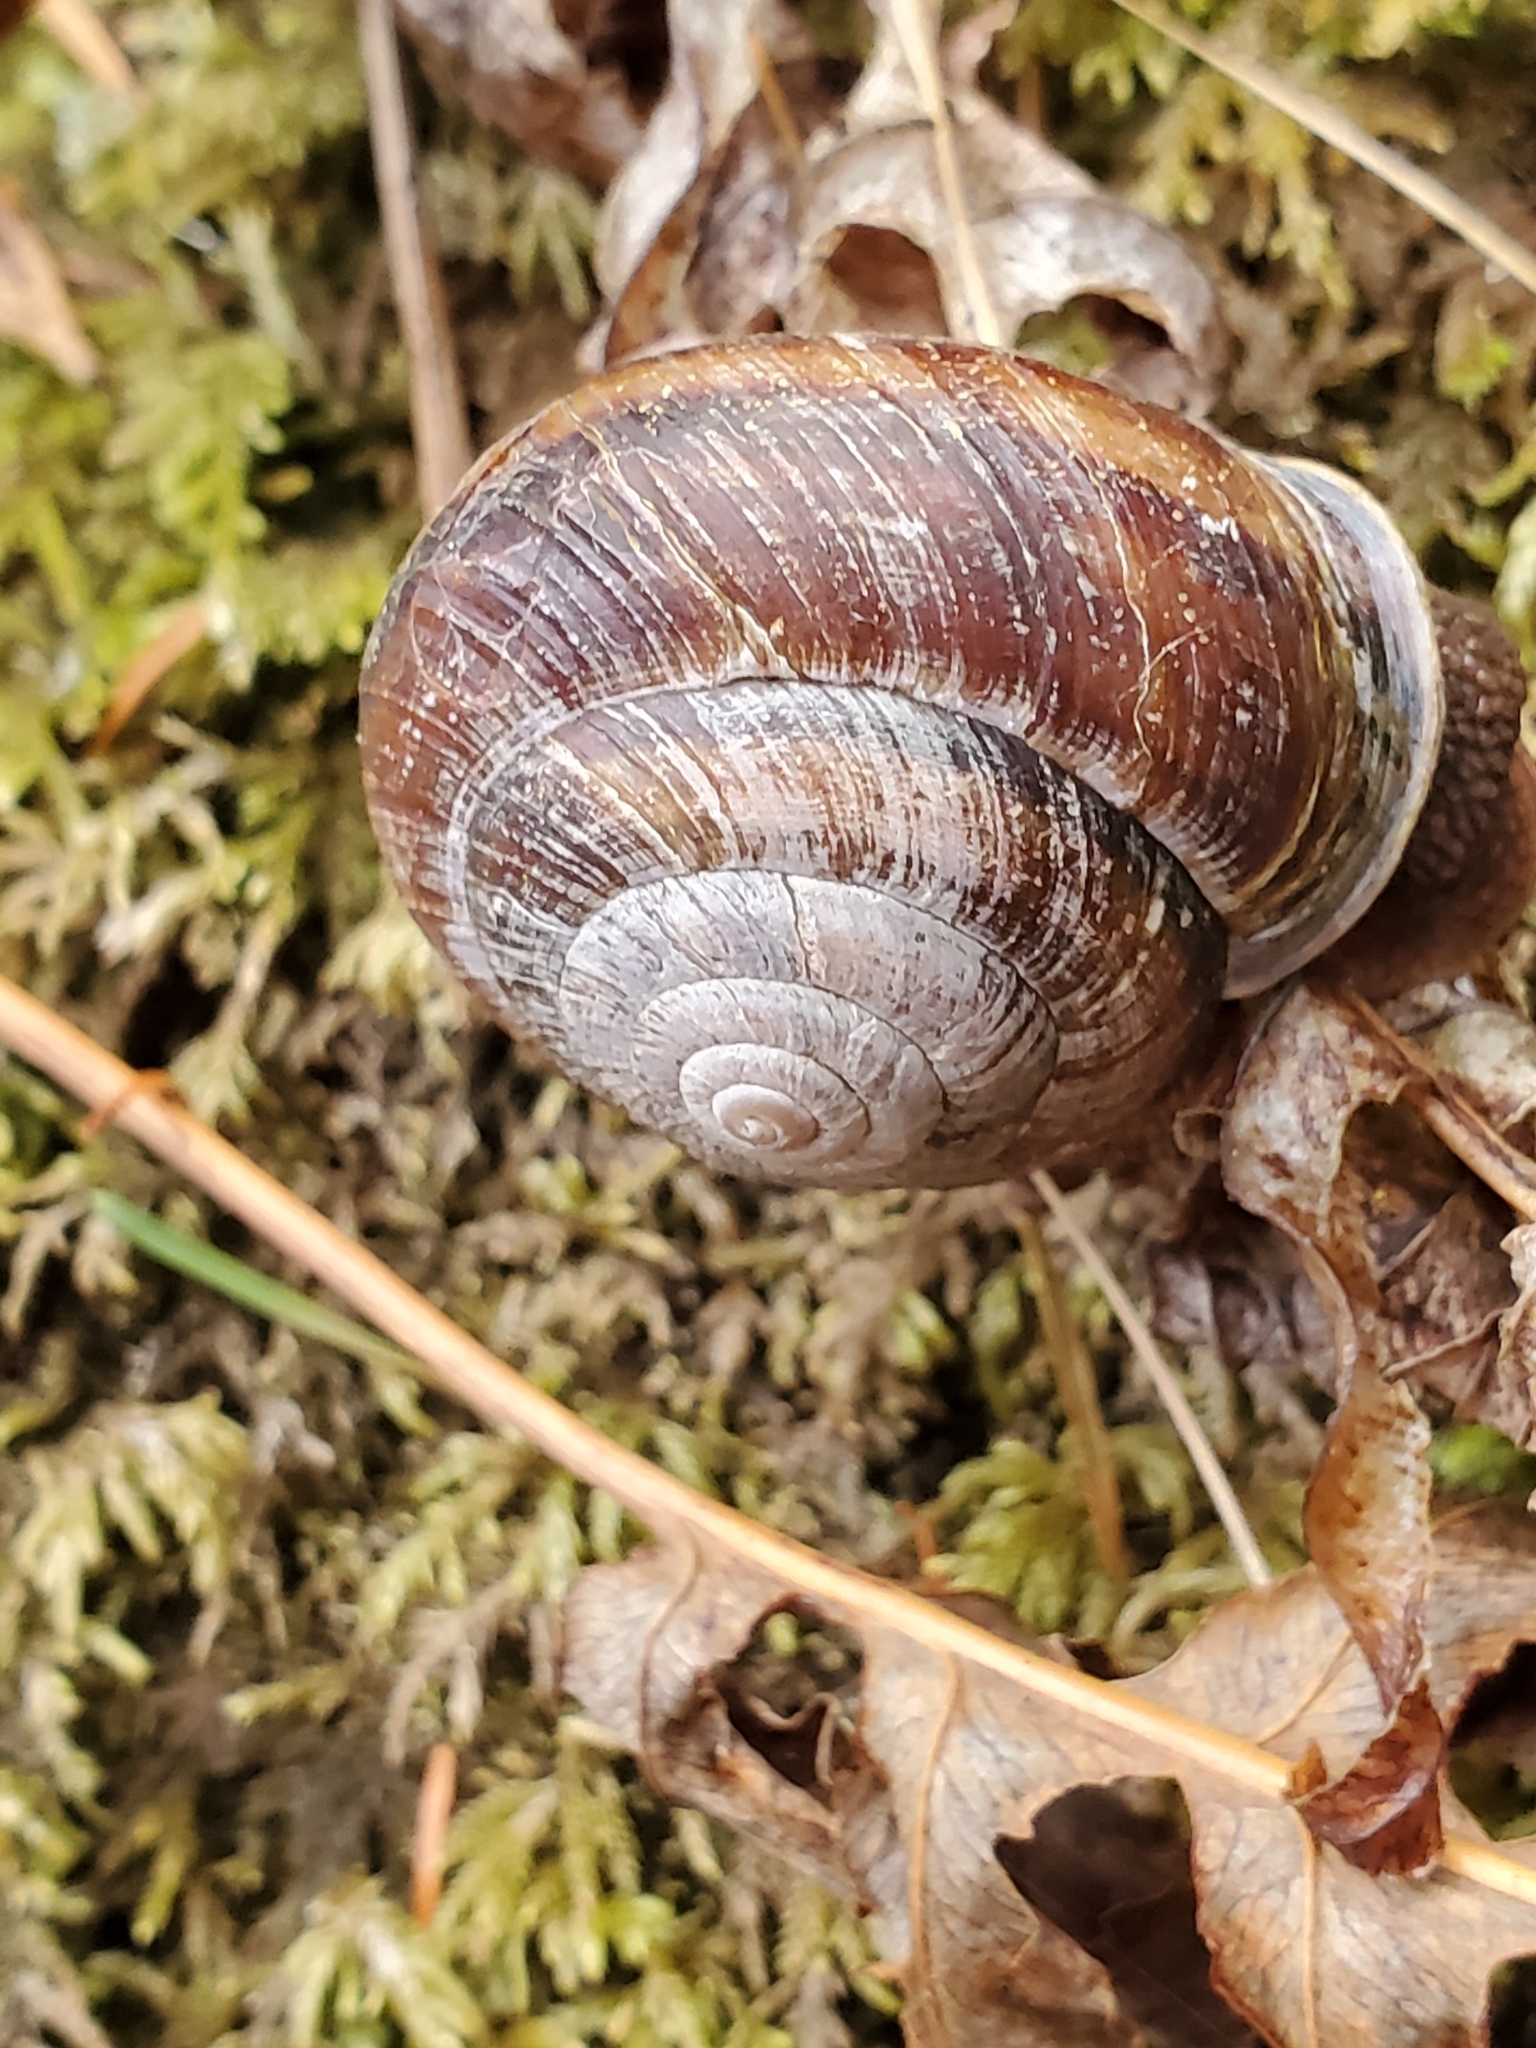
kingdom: Animalia
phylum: Mollusca
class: Gastropoda
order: Stylommatophora
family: Xanthonychidae
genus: Monadenia
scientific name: Monadenia fidelis
